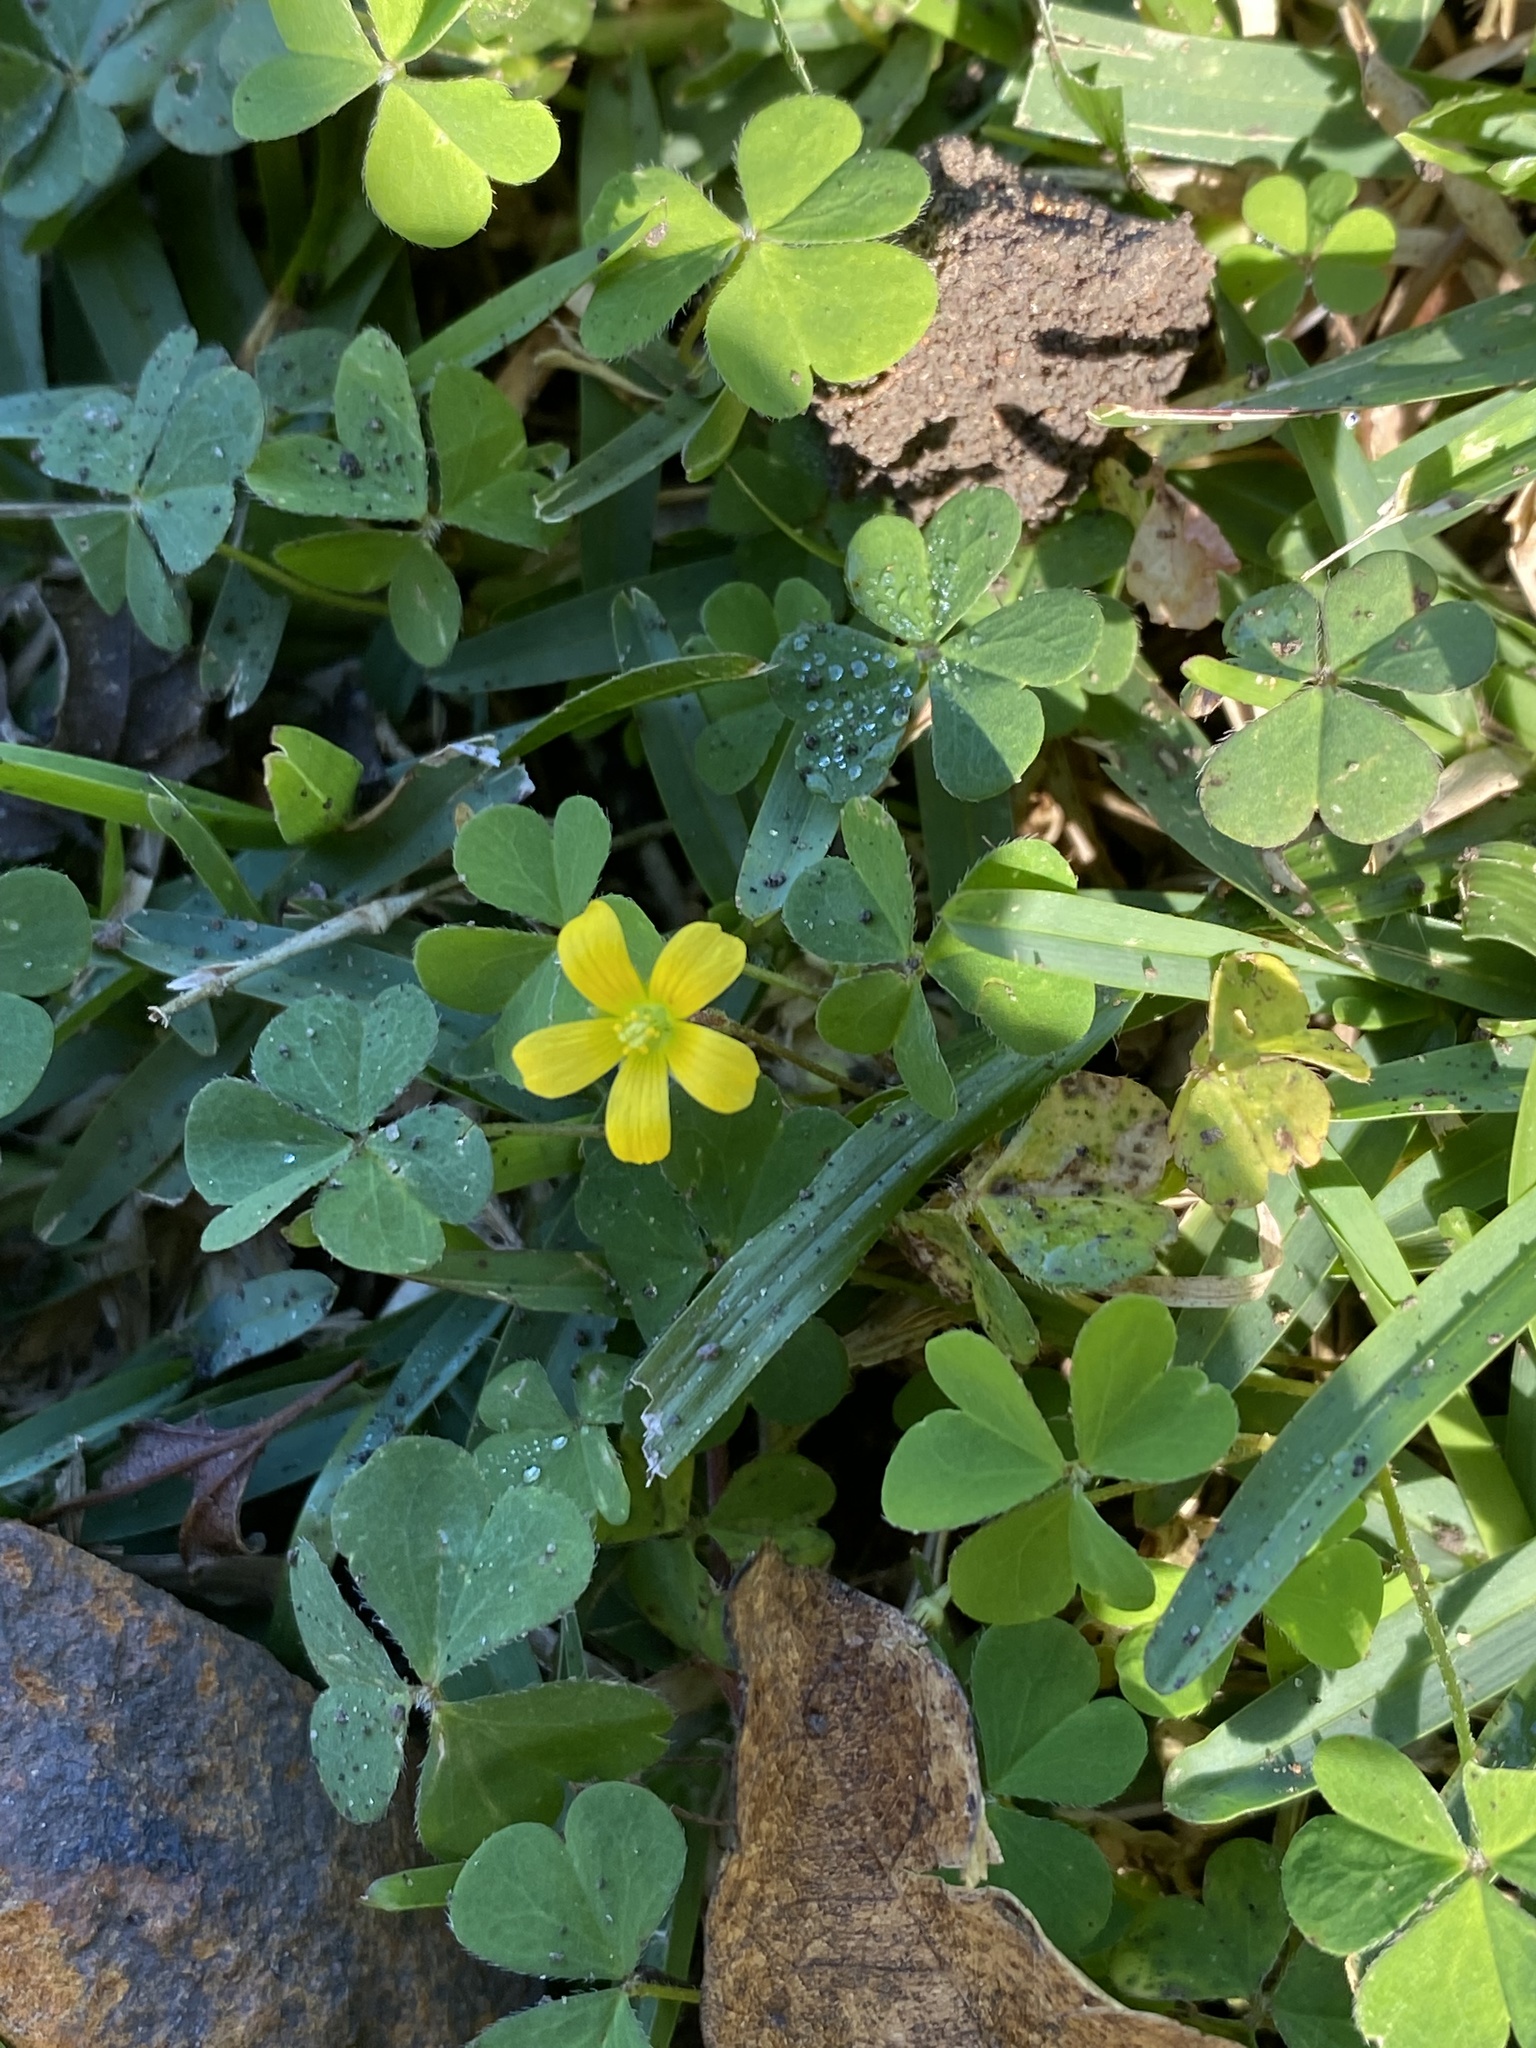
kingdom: Plantae
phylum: Tracheophyta
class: Magnoliopsida
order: Oxalidales
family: Oxalidaceae
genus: Oxalis
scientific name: Oxalis corniculata
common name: Procumbent yellow-sorrel
